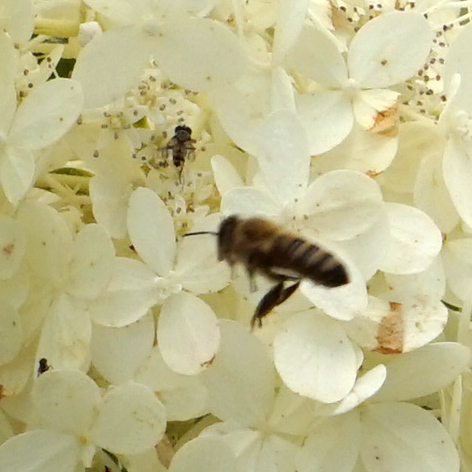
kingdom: Animalia
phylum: Arthropoda
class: Insecta
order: Hymenoptera
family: Apidae
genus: Apis
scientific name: Apis mellifera
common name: Honey bee
